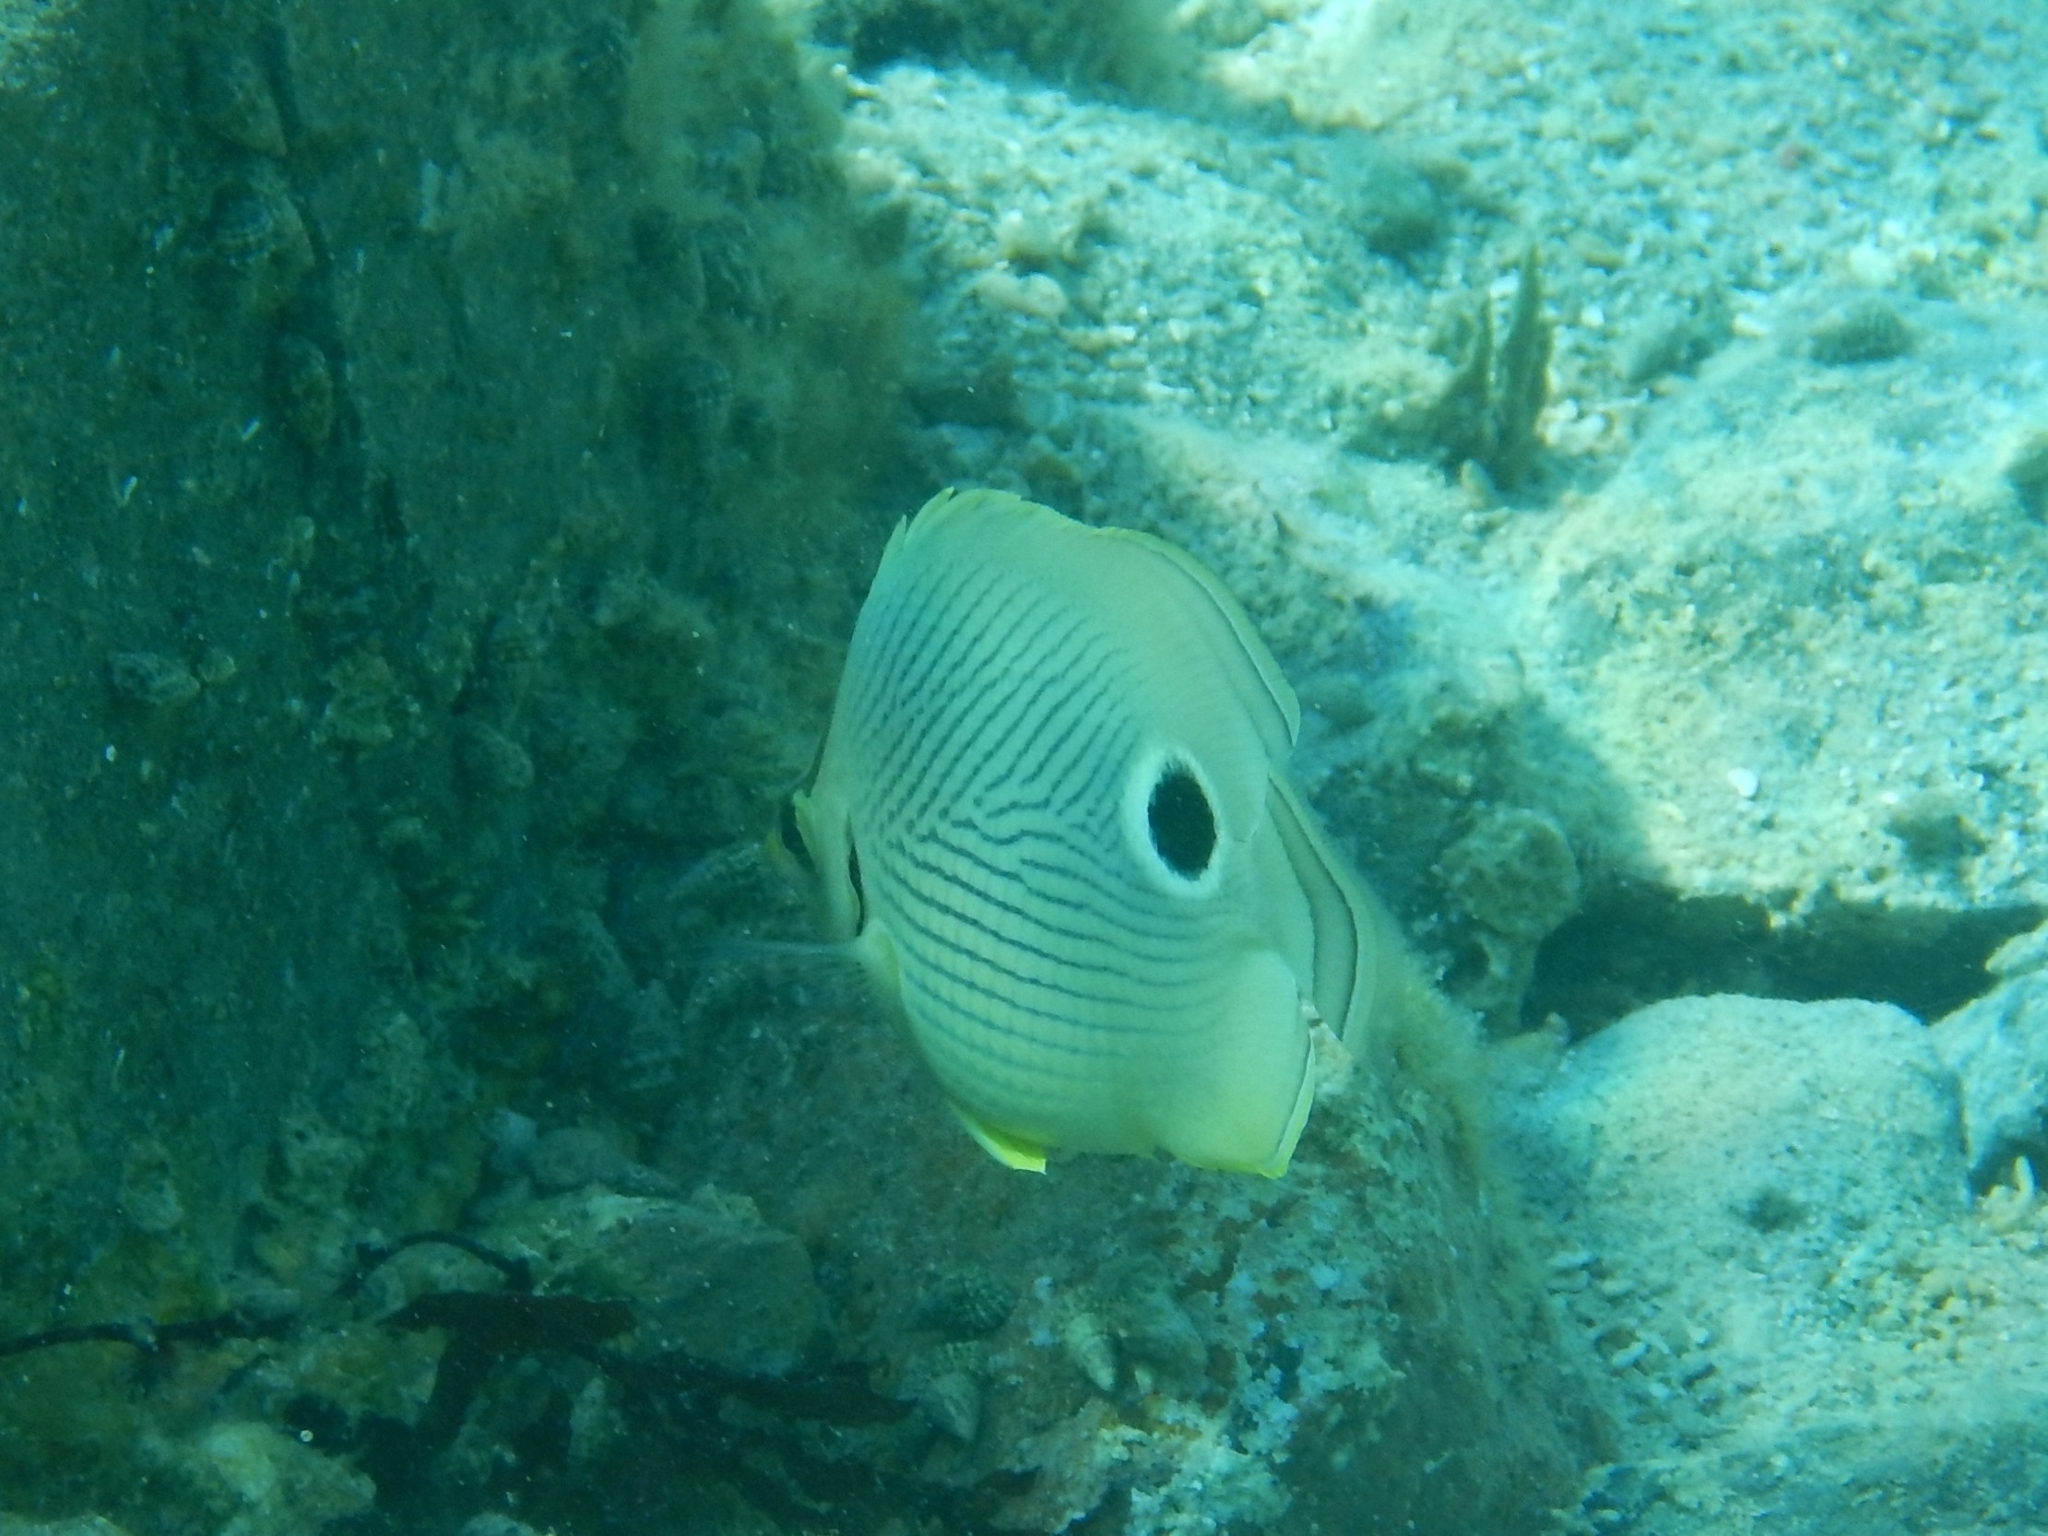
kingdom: Animalia
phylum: Chordata
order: Perciformes
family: Chaetodontidae
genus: Chaetodon
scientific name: Chaetodon capistratus
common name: Kete
